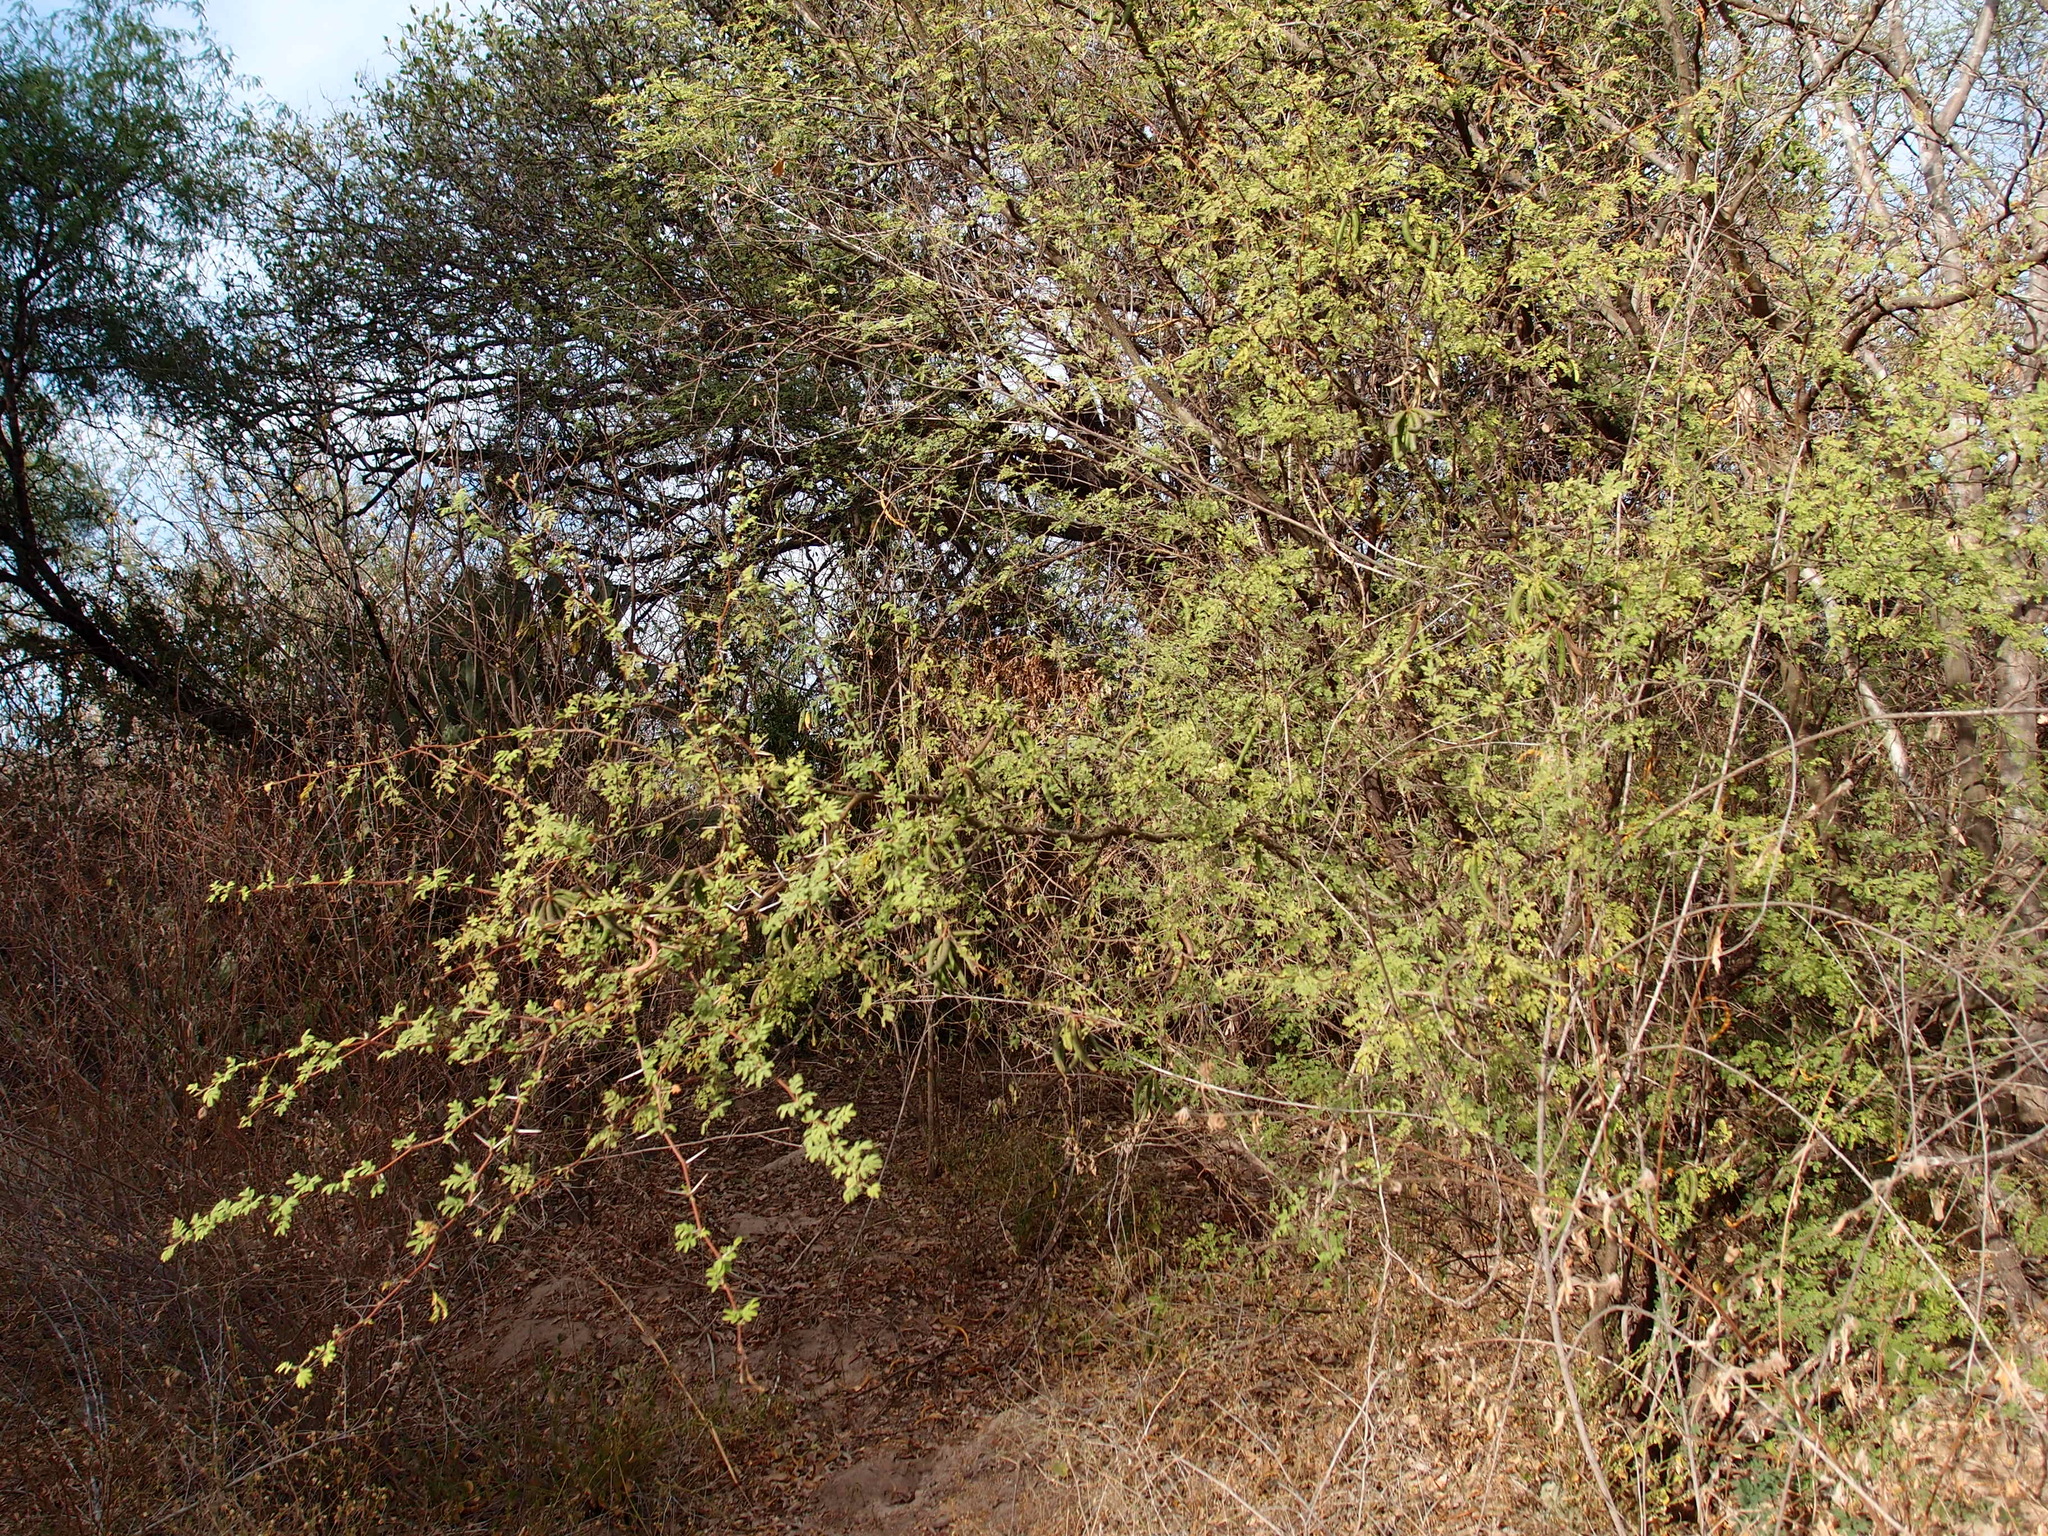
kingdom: Plantae
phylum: Tracheophyta
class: Magnoliopsida
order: Fabales
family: Fabaceae
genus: Vachellia
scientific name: Vachellia farnesiana
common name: Sweet acacia
